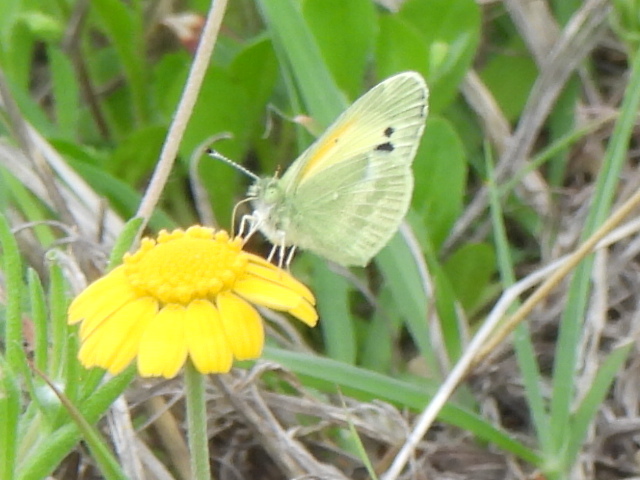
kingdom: Animalia
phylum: Arthropoda
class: Insecta
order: Lepidoptera
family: Pieridae
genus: Nathalis
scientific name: Nathalis iole
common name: Dainty sulphur
